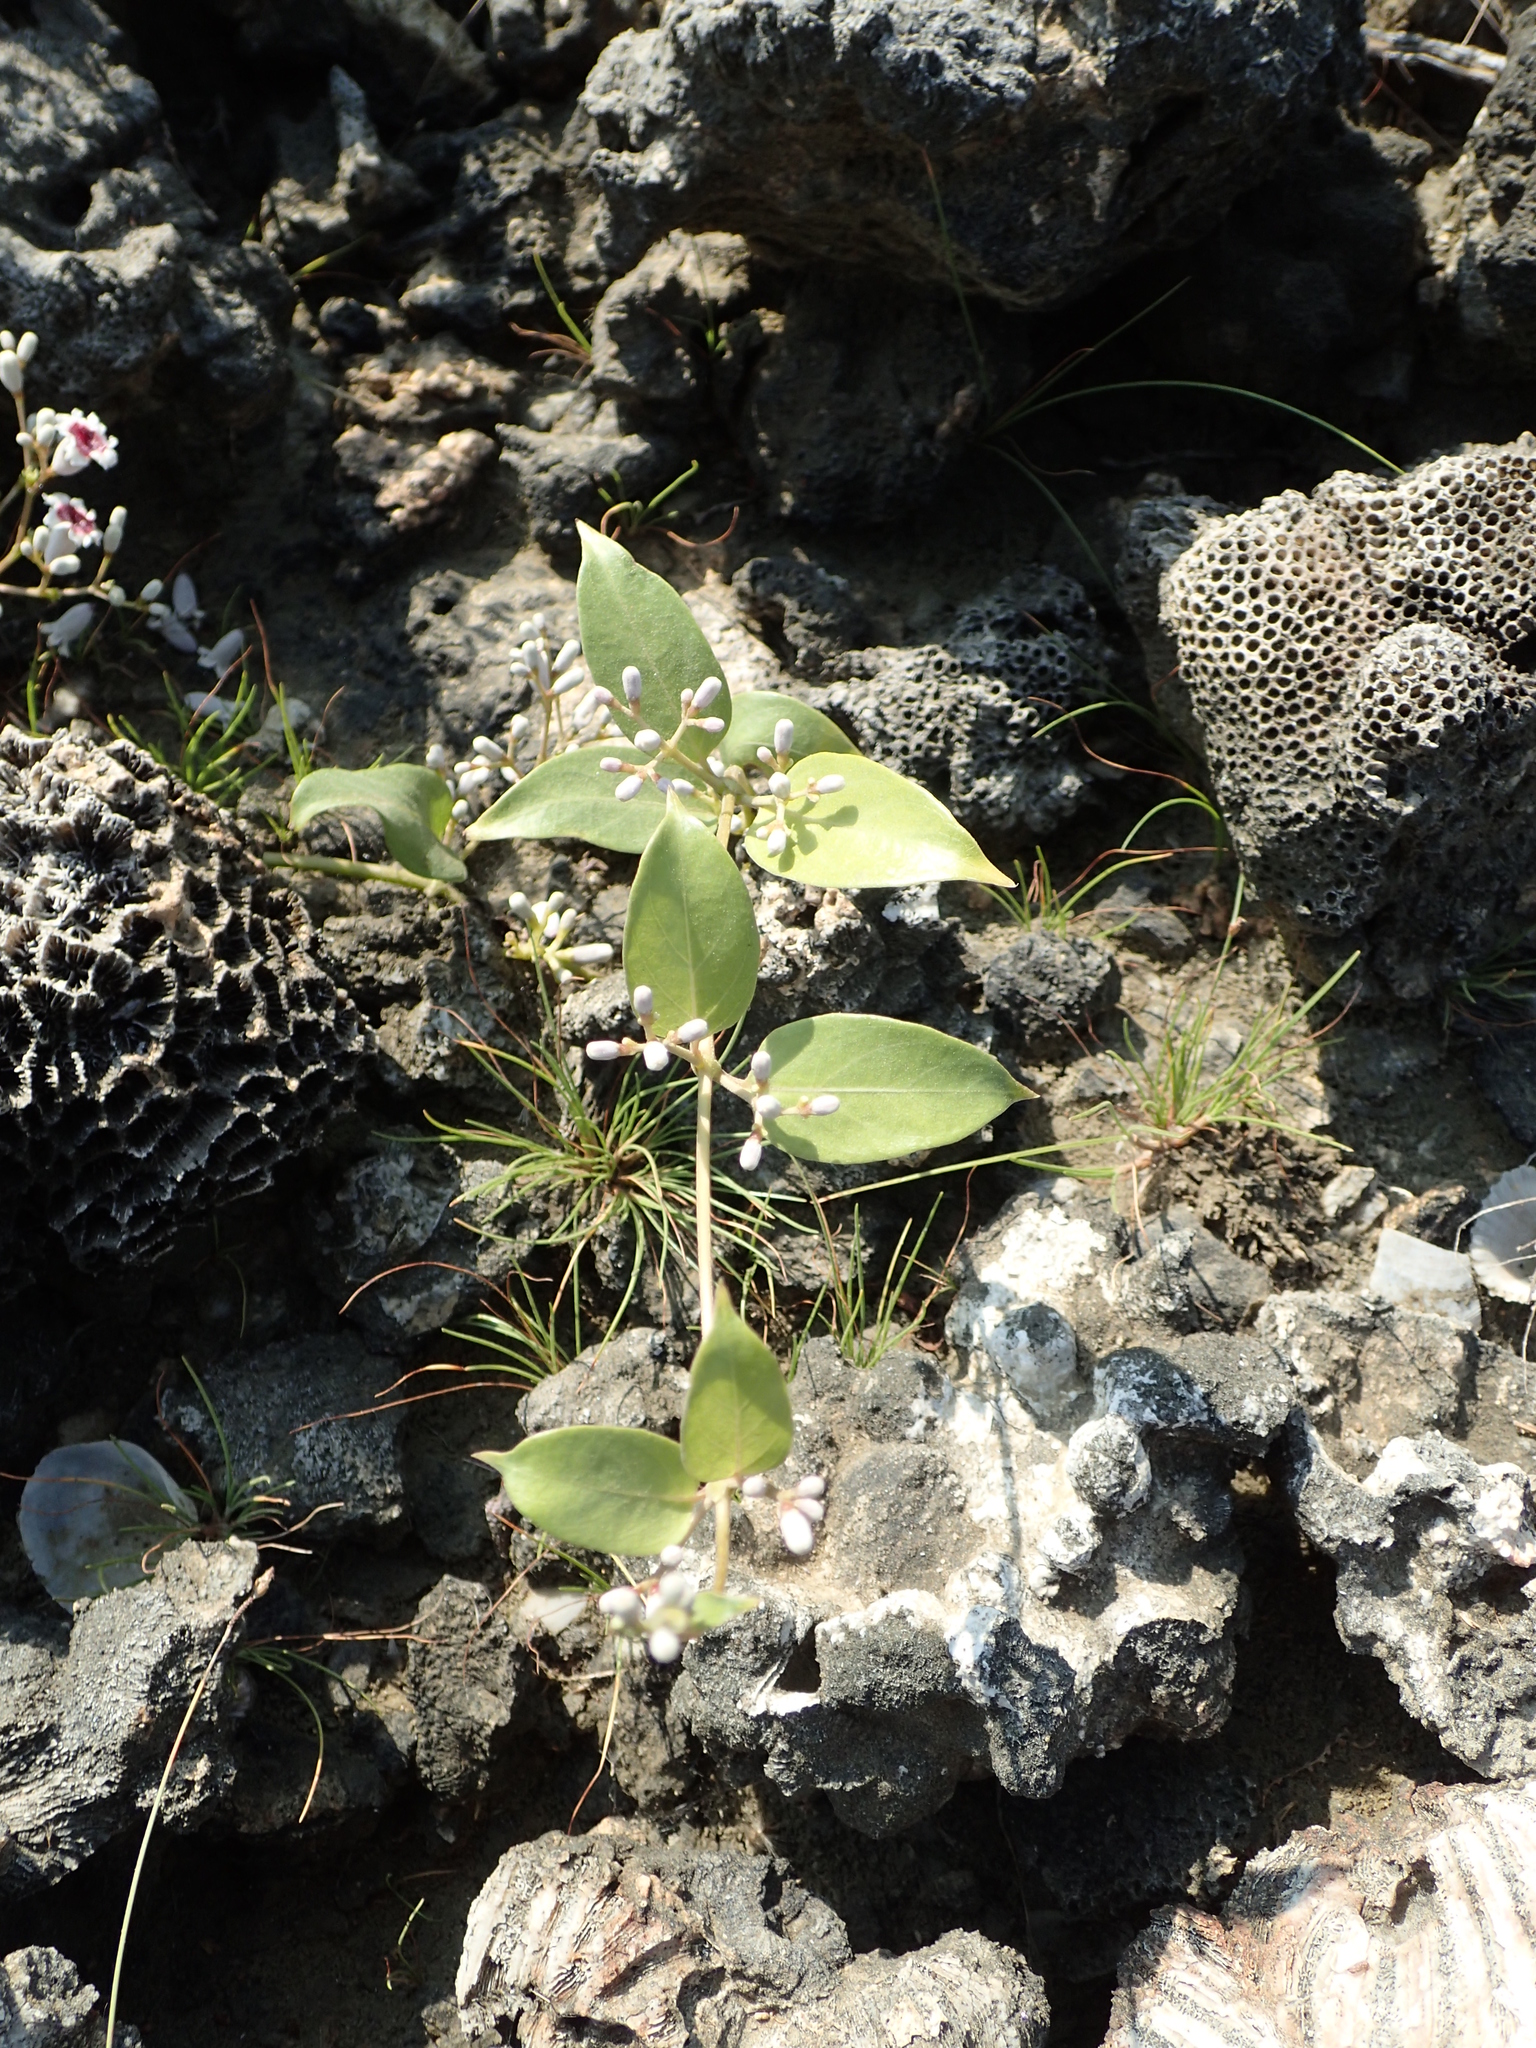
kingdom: Plantae
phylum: Tracheophyta
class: Magnoliopsida
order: Gentianales
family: Rubiaceae
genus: Paederia
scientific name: Paederia foetida
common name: Stinkvine
